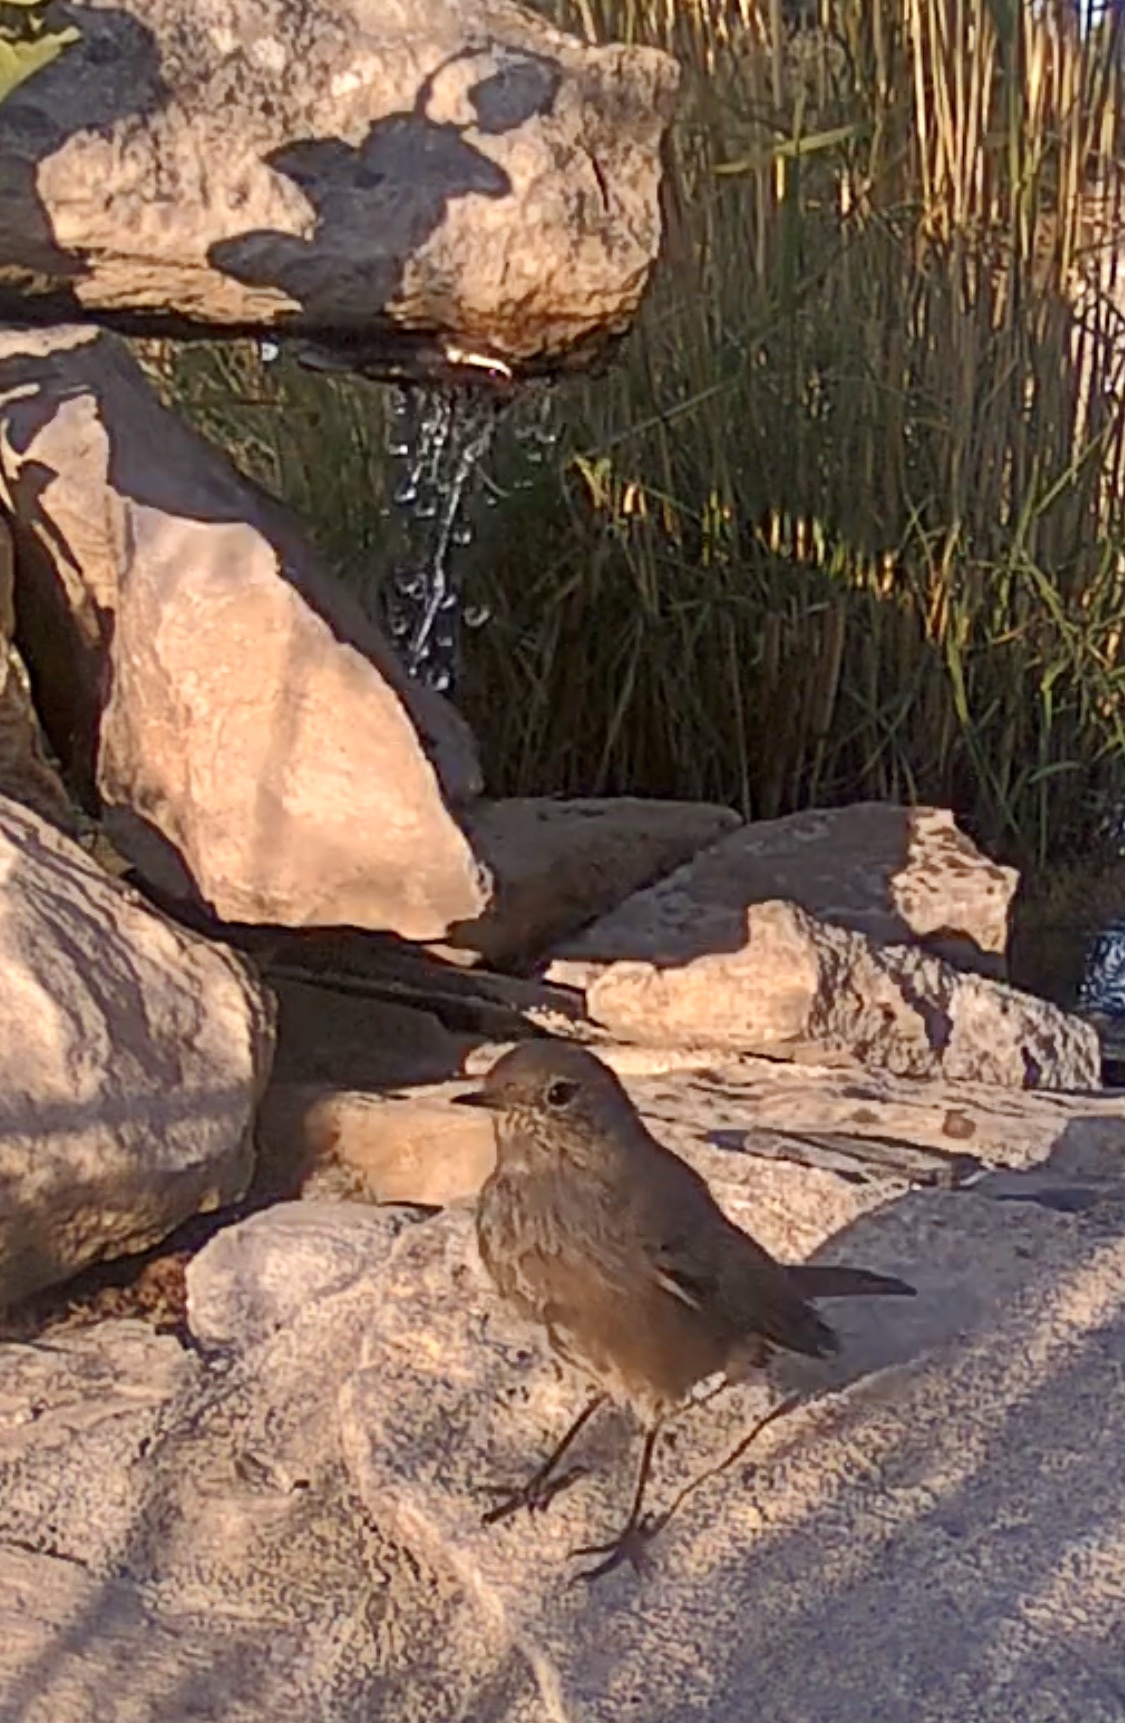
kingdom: Animalia
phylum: Chordata
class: Aves
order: Passeriformes
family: Muscicapidae
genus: Phoenicurus
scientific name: Phoenicurus ochruros
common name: Black redstart
